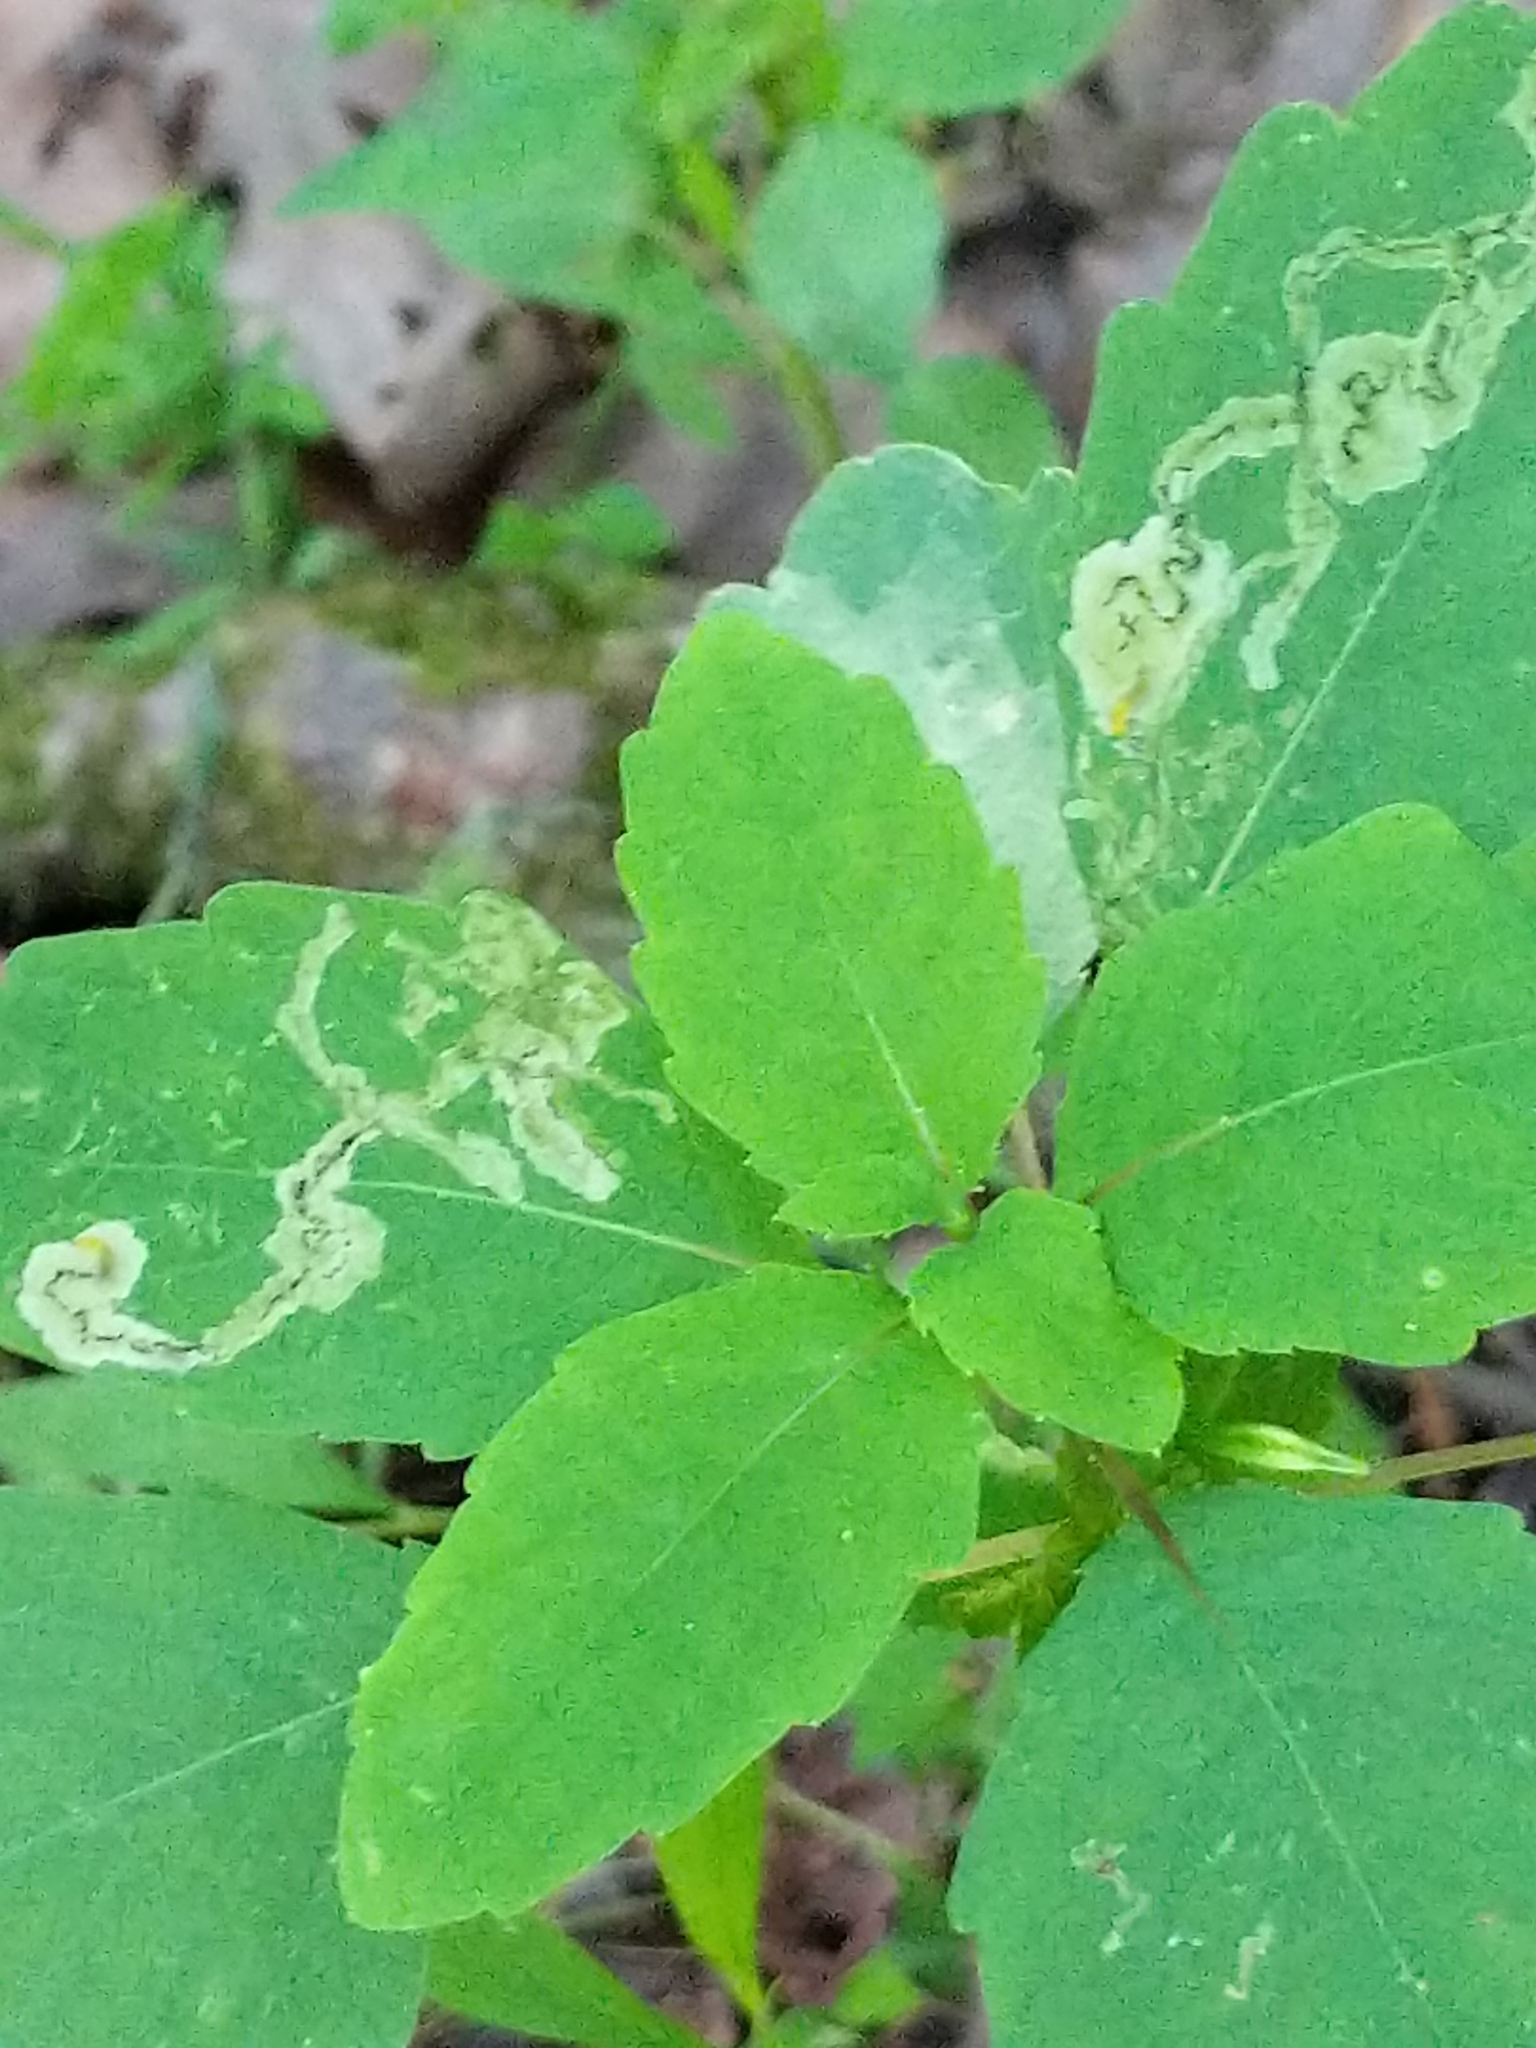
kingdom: Animalia
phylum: Arthropoda
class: Insecta
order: Diptera
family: Agromyzidae
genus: Phytoliriomyza
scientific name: Phytoliriomyza melampyga
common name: Jewelweed leaf-miner fly
